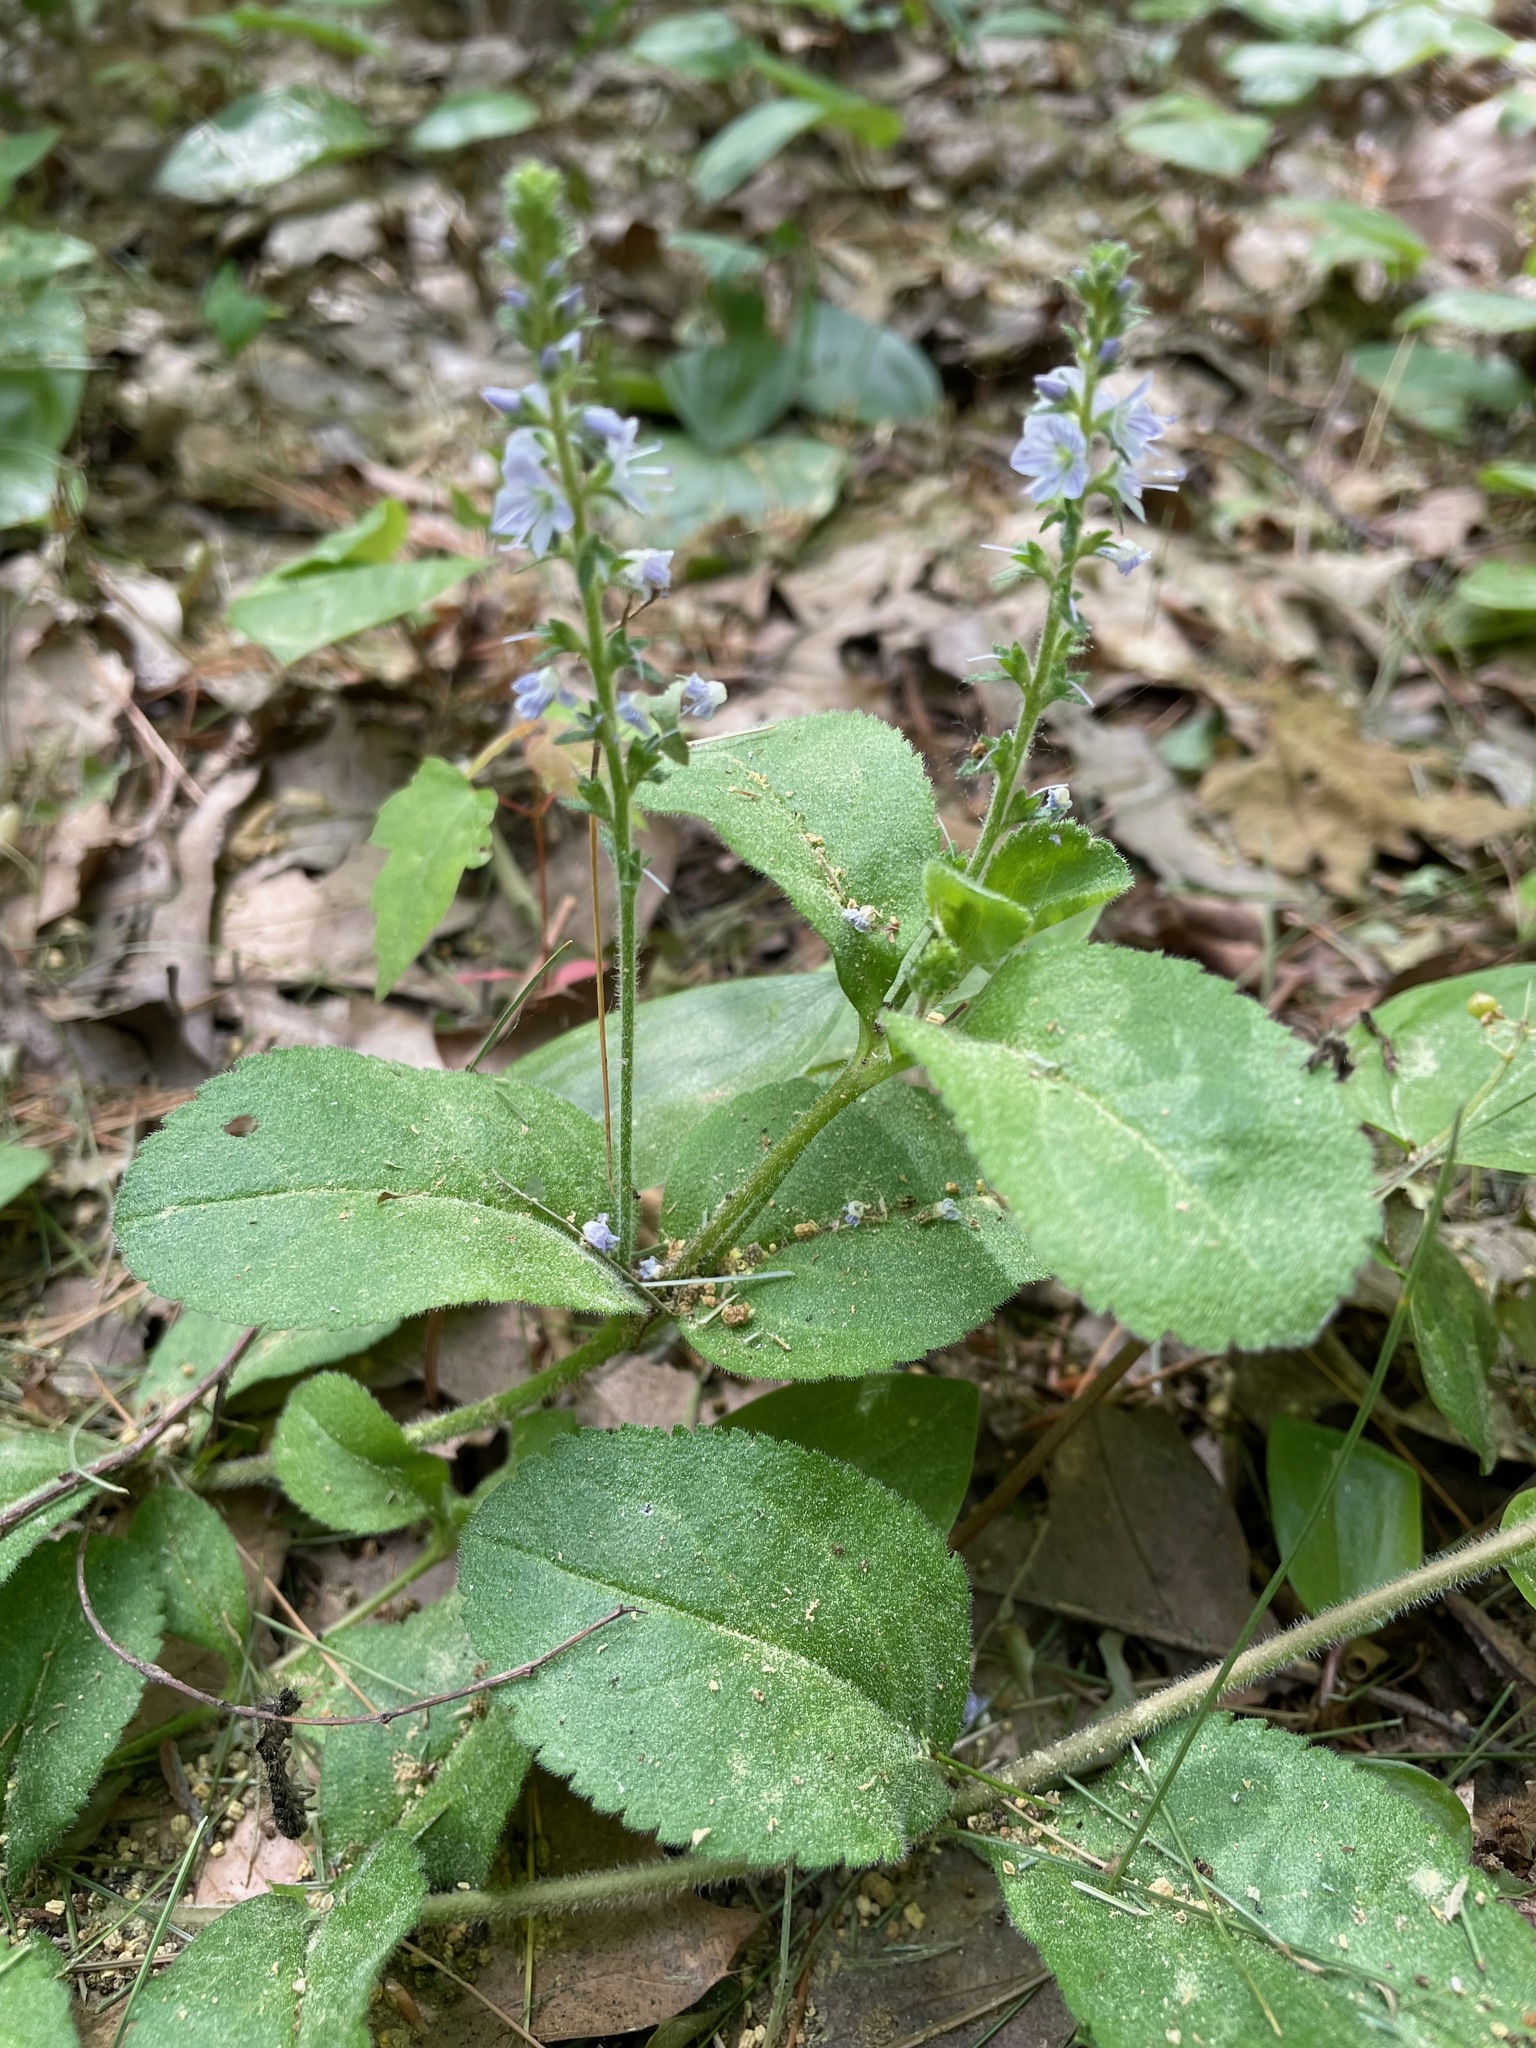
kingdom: Plantae
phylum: Tracheophyta
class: Magnoliopsida
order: Lamiales
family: Plantaginaceae
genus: Veronica
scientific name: Veronica officinalis
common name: Common speedwell
